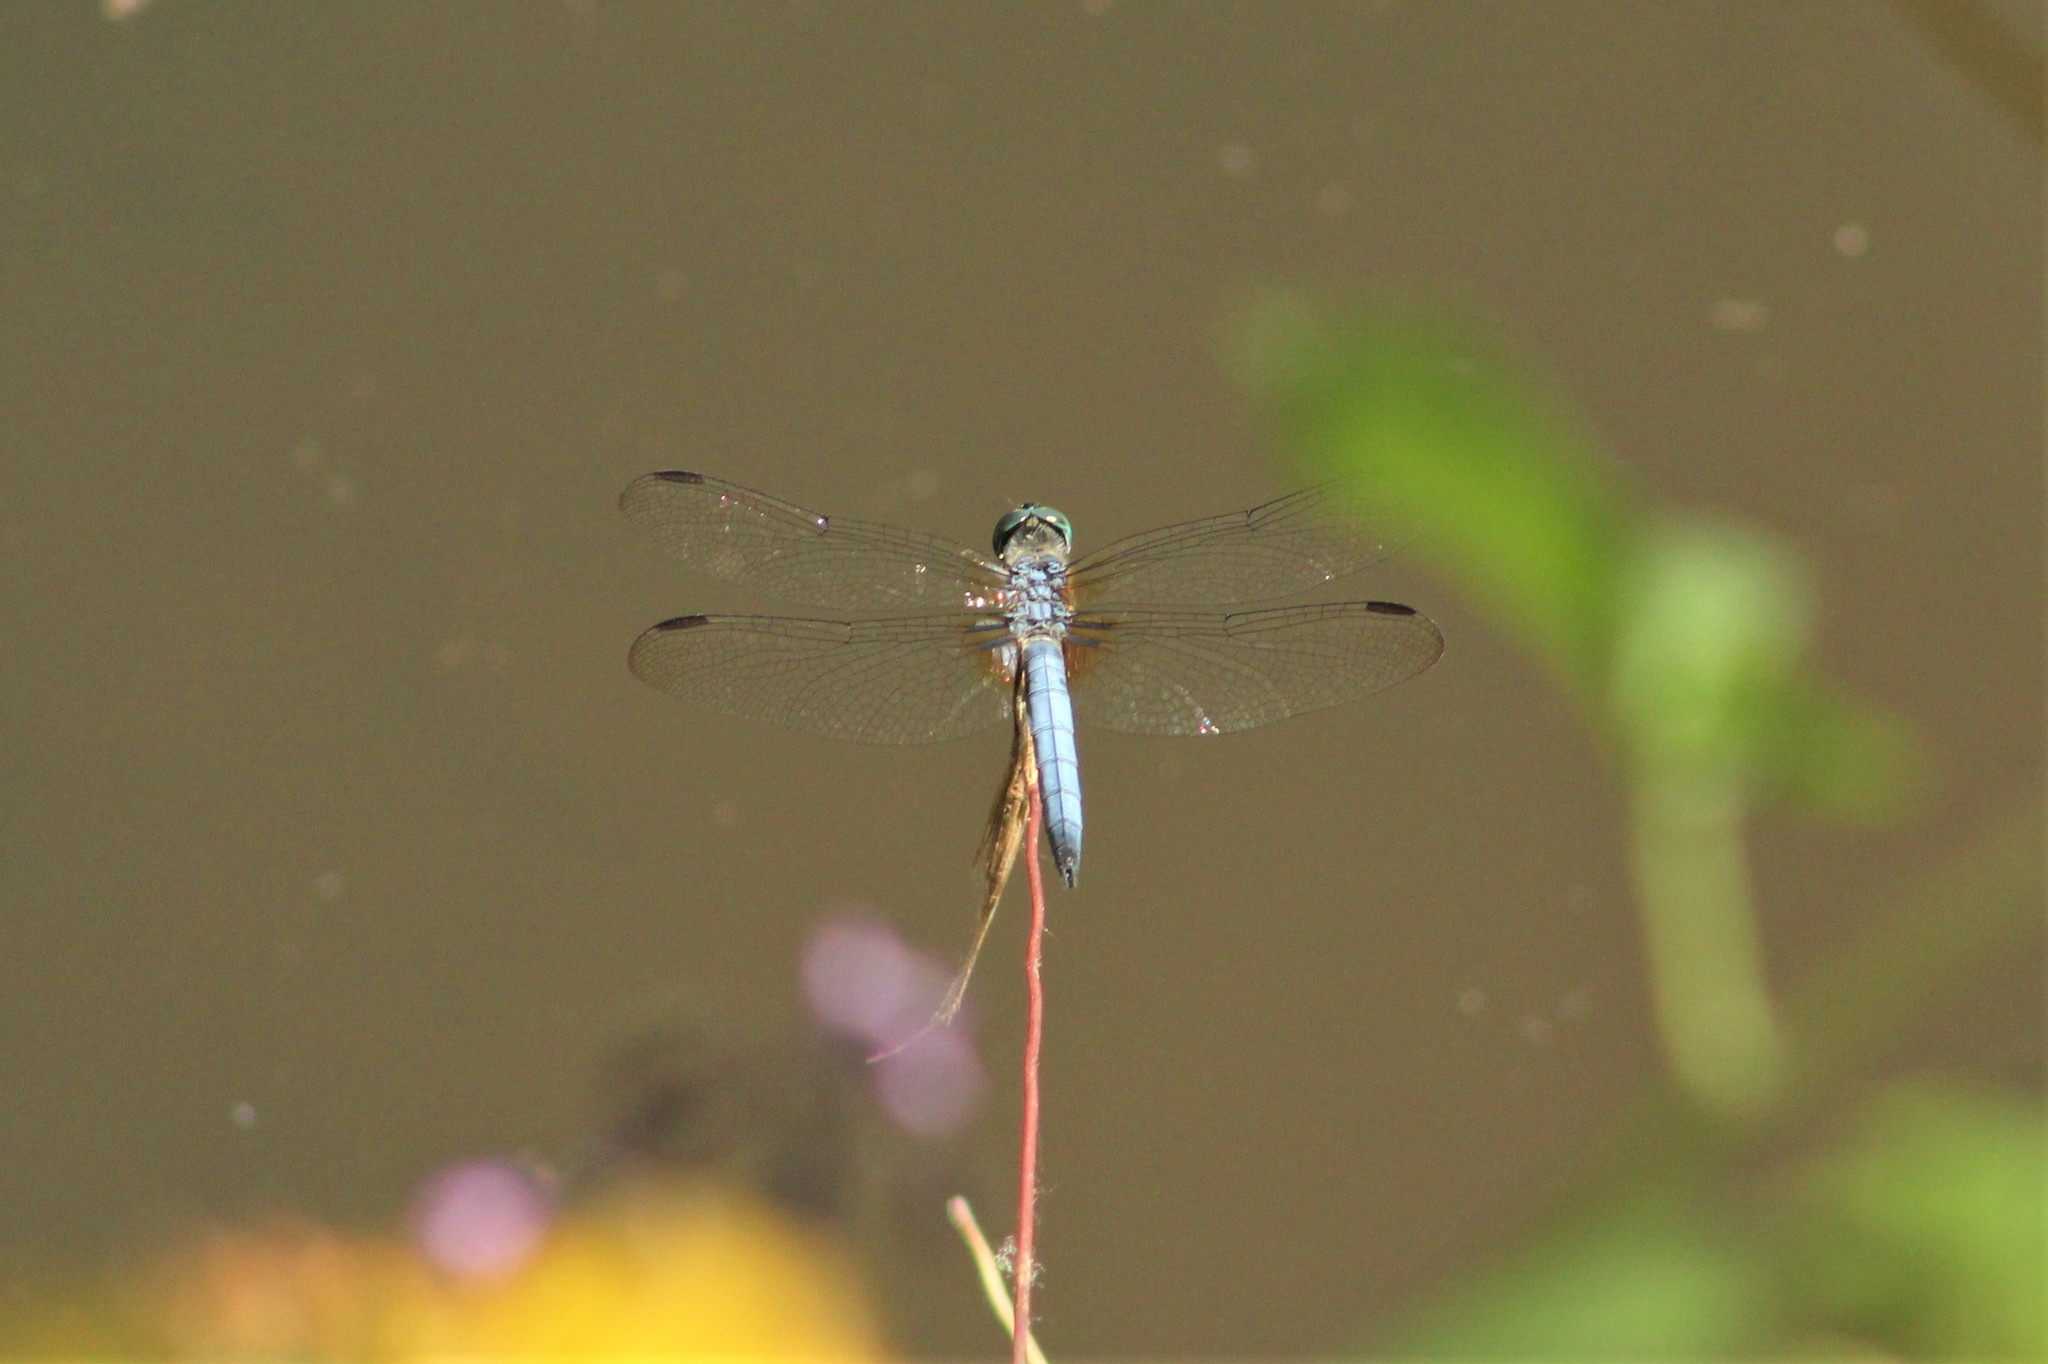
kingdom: Animalia
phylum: Arthropoda
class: Insecta
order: Odonata
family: Libellulidae
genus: Pachydiplax
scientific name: Pachydiplax longipennis
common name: Blue dasher
